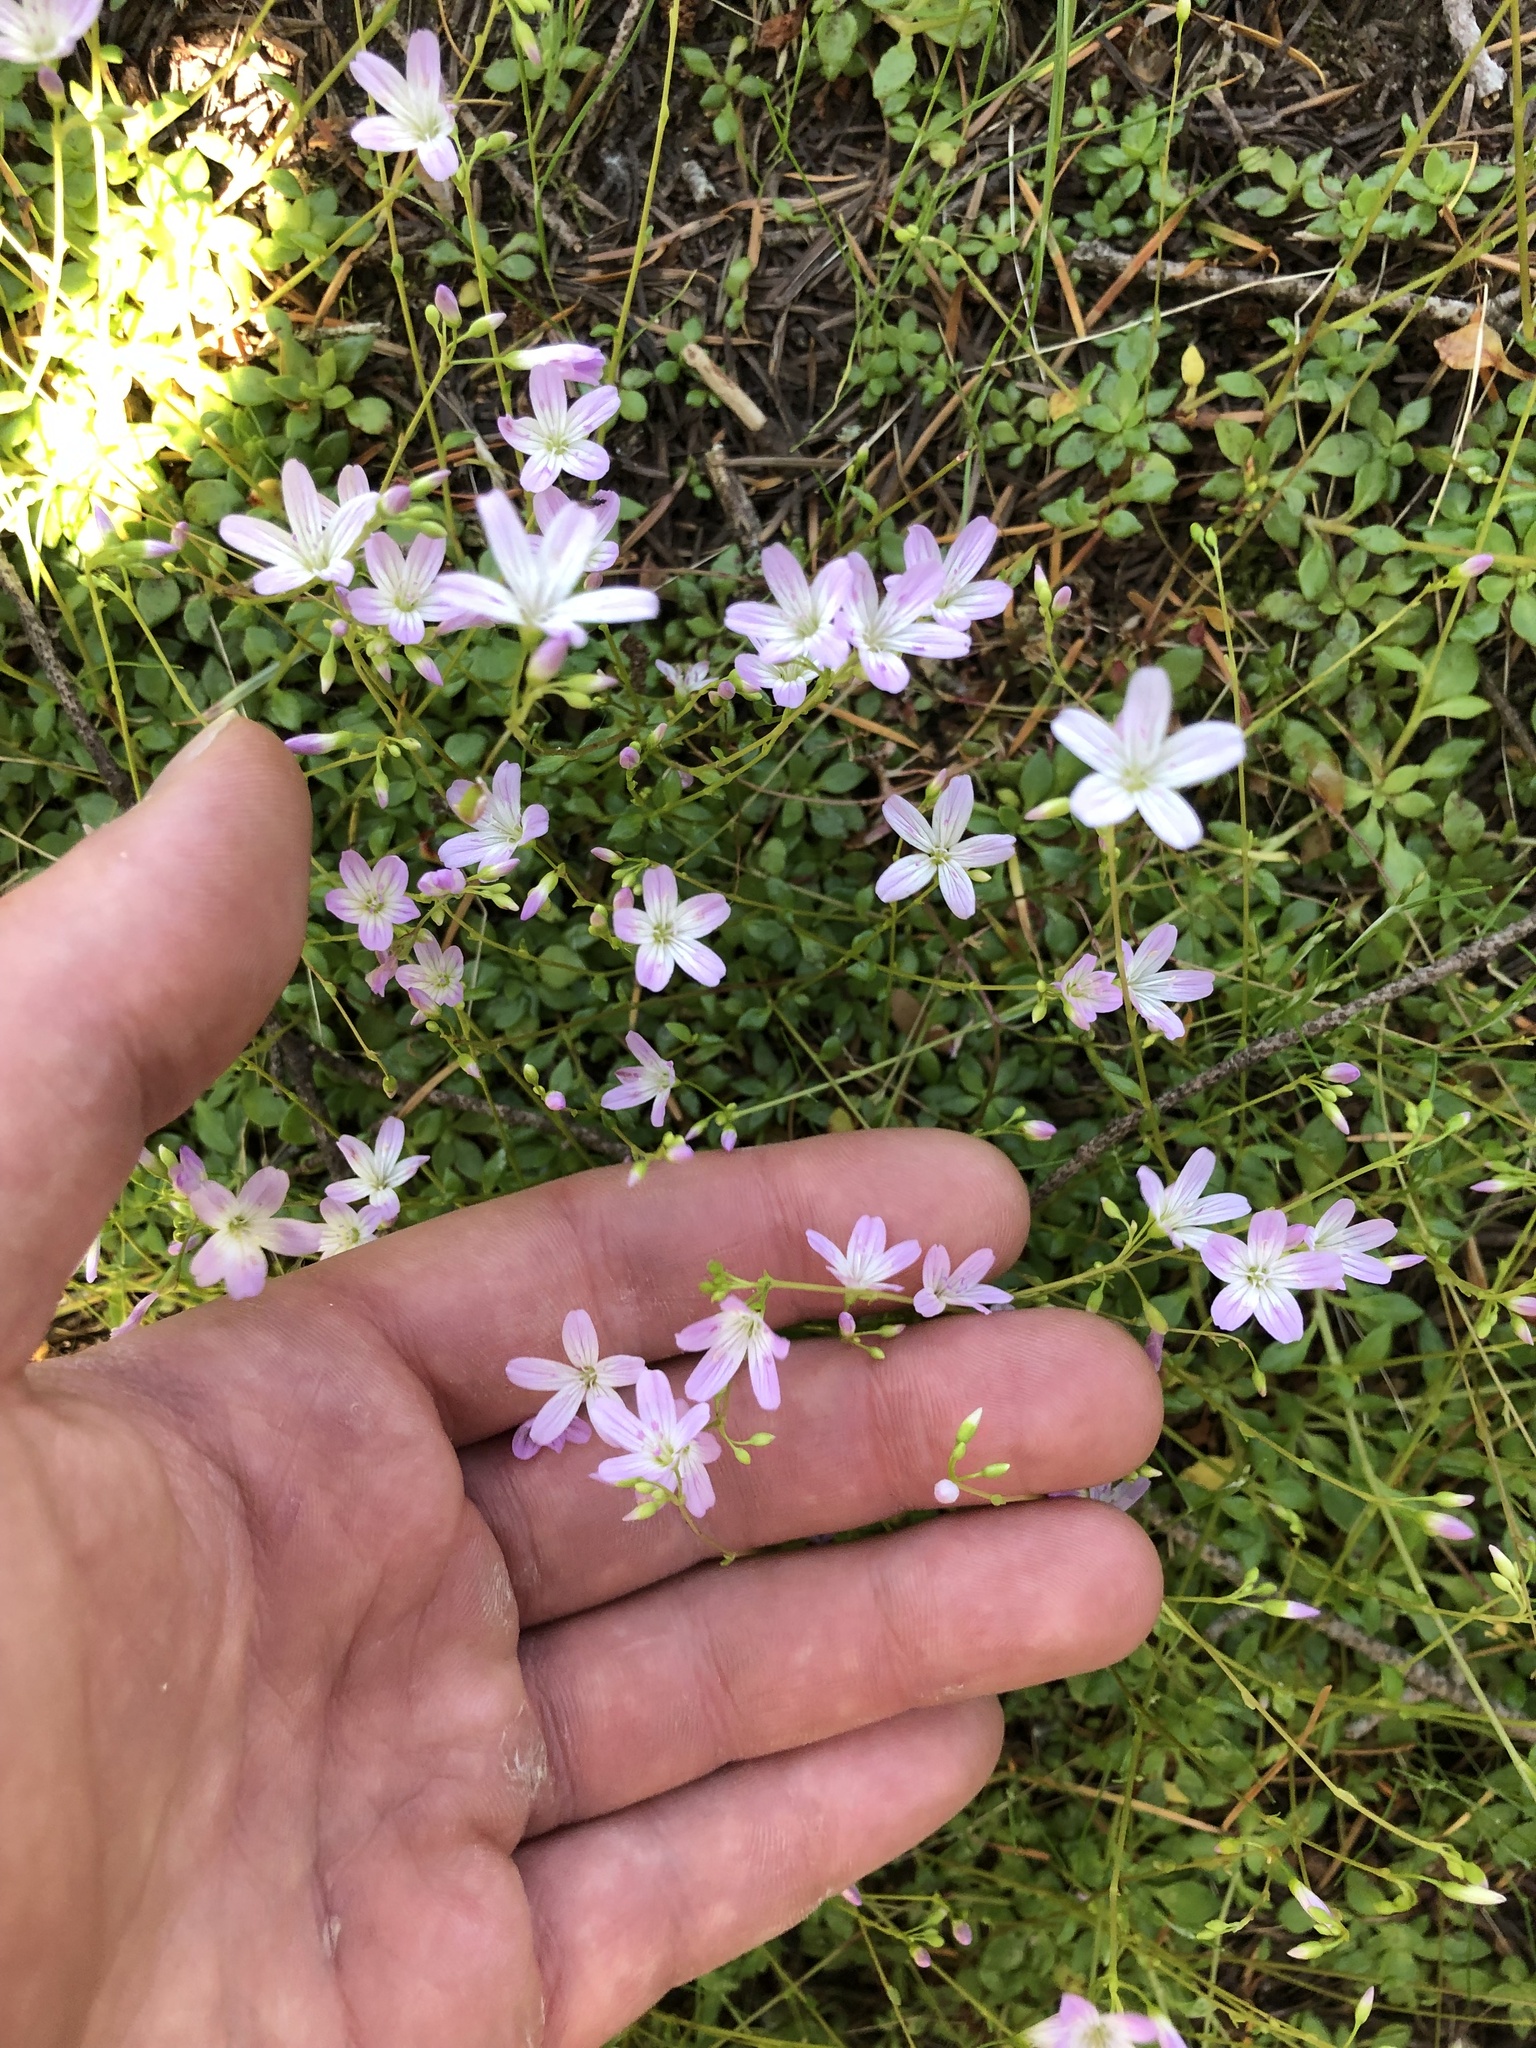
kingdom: Plantae
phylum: Tracheophyta
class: Magnoliopsida
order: Caryophyllales
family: Montiaceae
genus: Montia
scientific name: Montia parvifolia
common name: Small-leaved blinks
